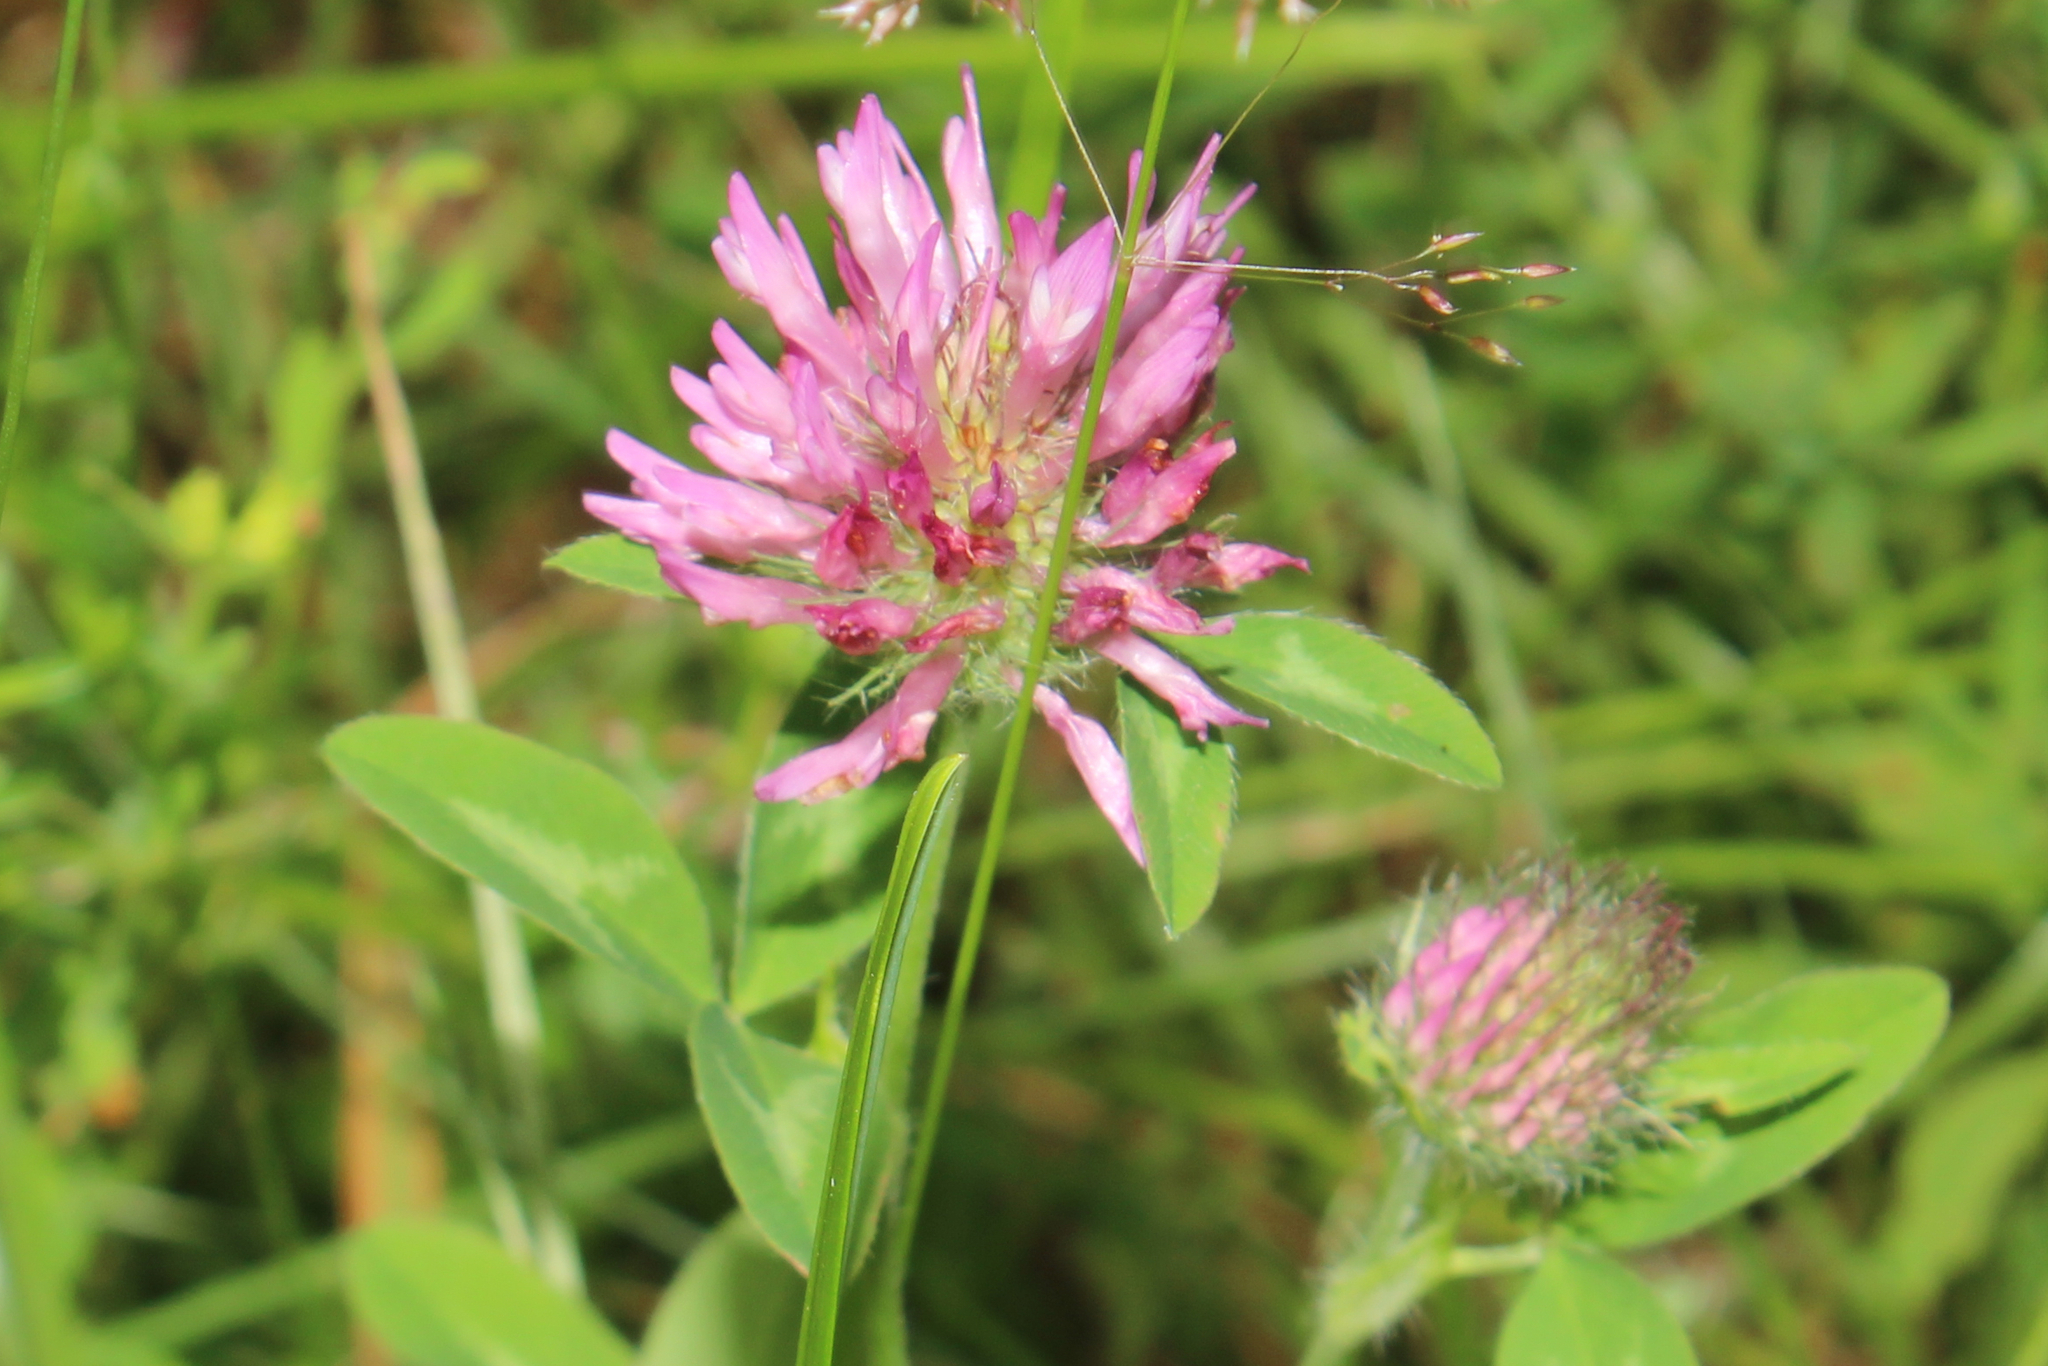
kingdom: Plantae
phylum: Tracheophyta
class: Magnoliopsida
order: Fabales
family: Fabaceae
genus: Trifolium
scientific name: Trifolium pratense
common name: Red clover
